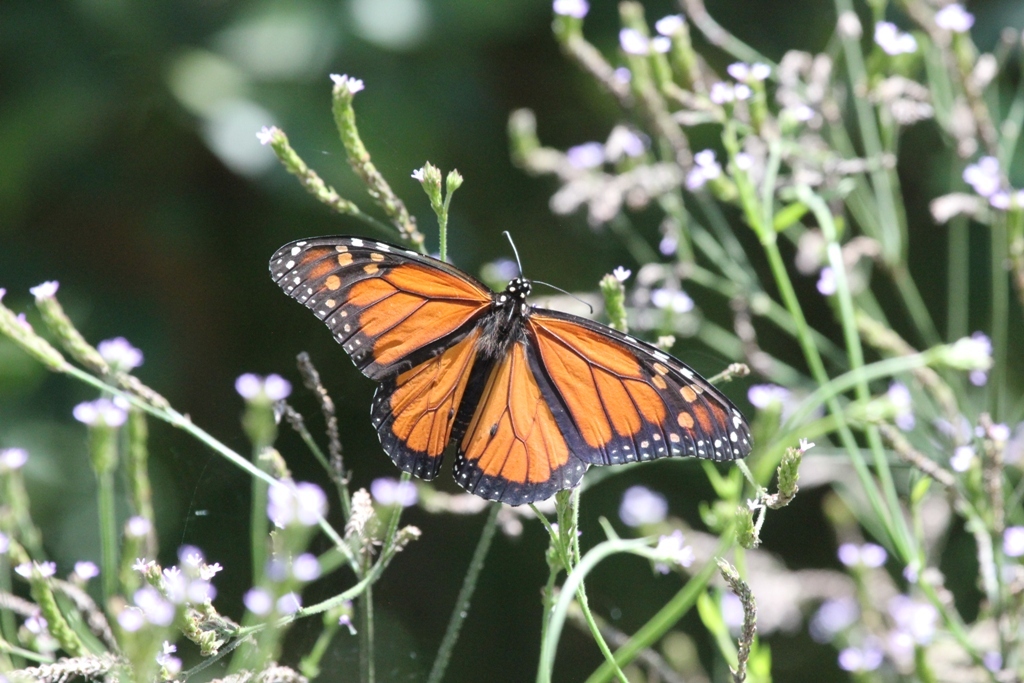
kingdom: Animalia
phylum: Arthropoda
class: Insecta
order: Lepidoptera
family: Nymphalidae
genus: Danaus
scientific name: Danaus plexippus
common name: Monarch
